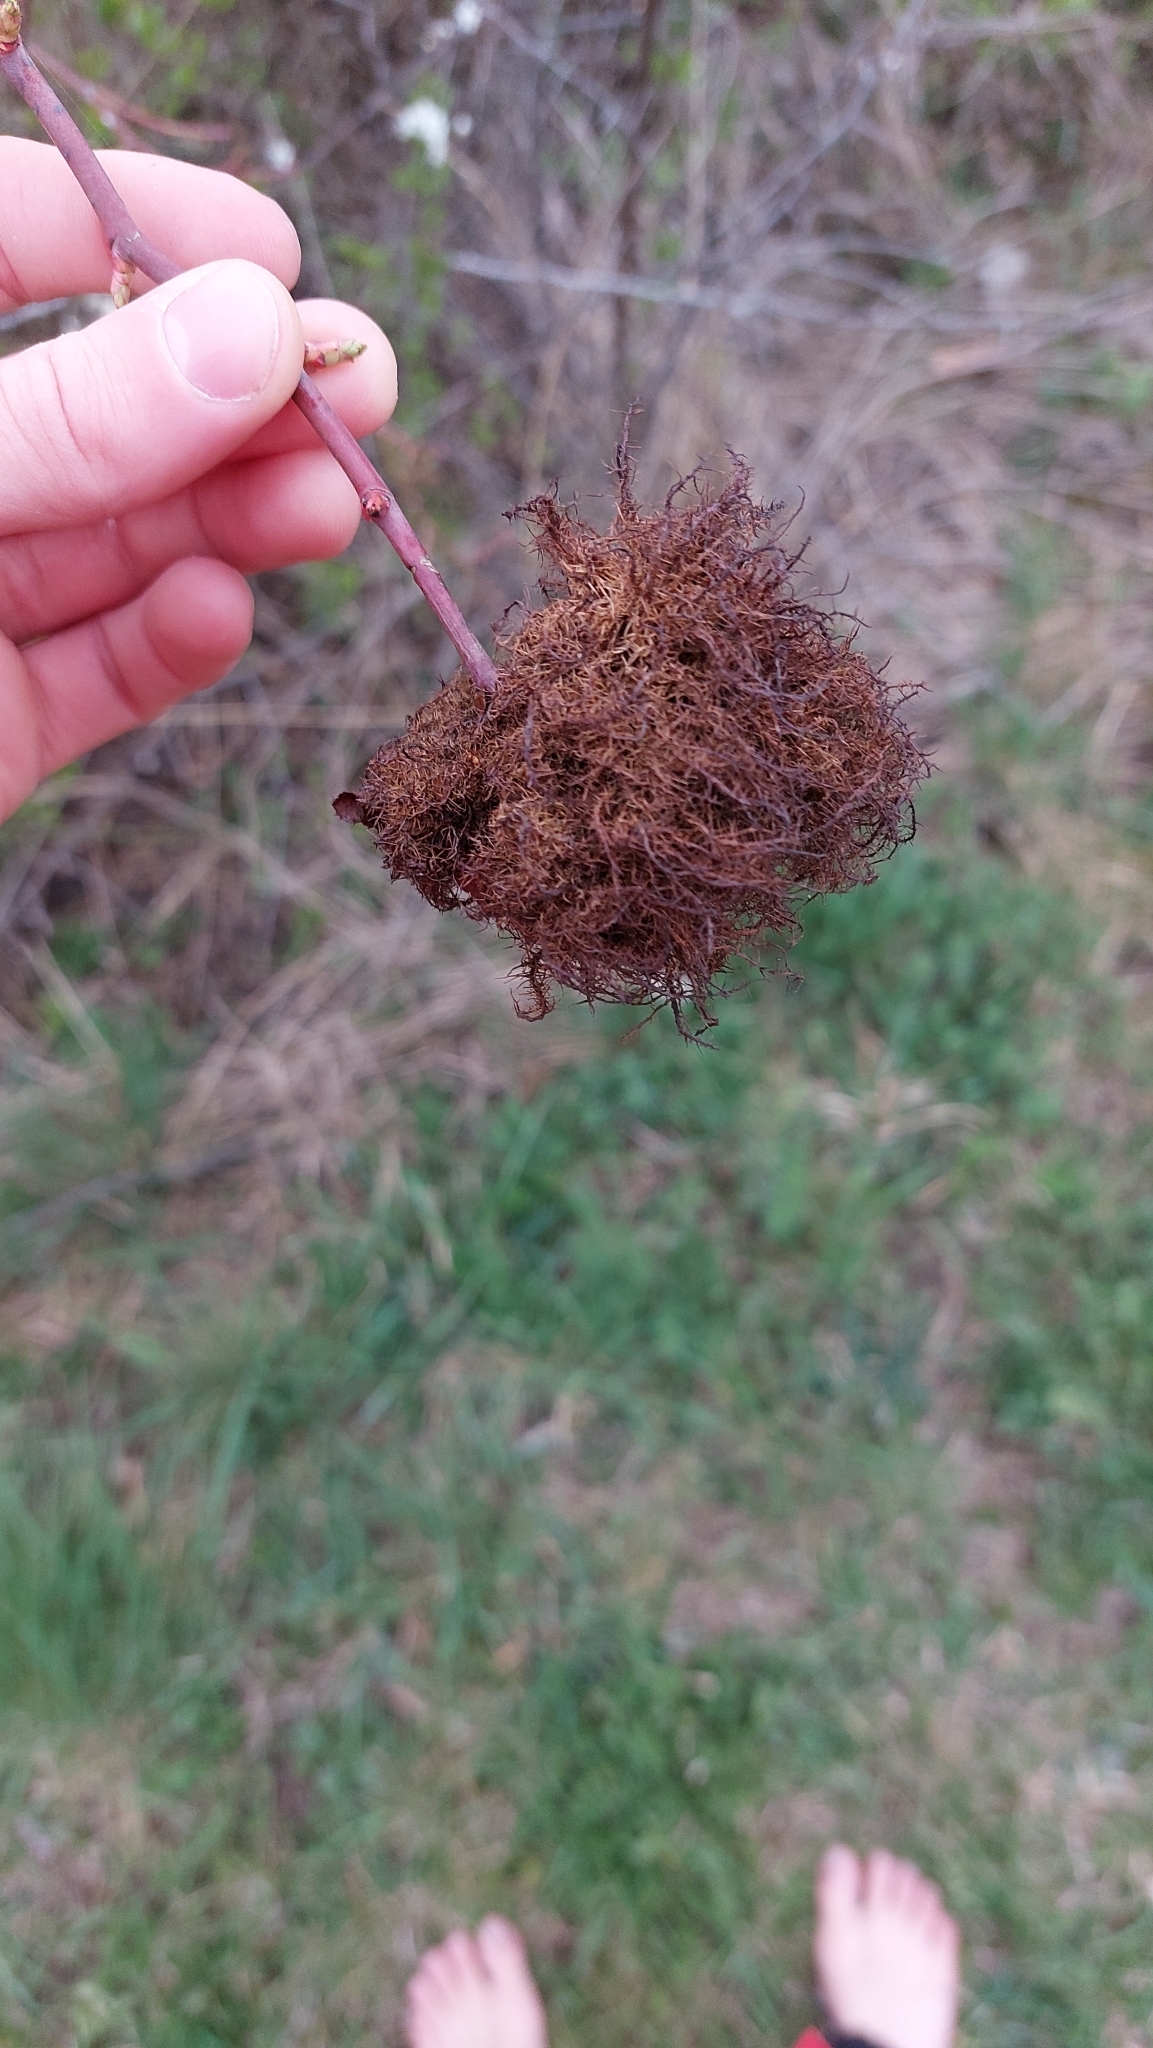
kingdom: Animalia
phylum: Arthropoda
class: Insecta
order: Hymenoptera
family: Cynipidae
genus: Diplolepis
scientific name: Diplolepis rosae
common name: Bedeguar gall
